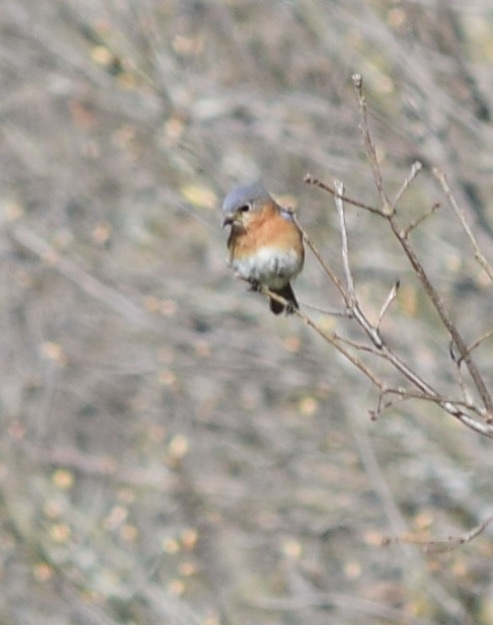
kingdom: Animalia
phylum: Chordata
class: Aves
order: Passeriformes
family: Turdidae
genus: Sialia
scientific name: Sialia sialis
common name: Eastern bluebird
